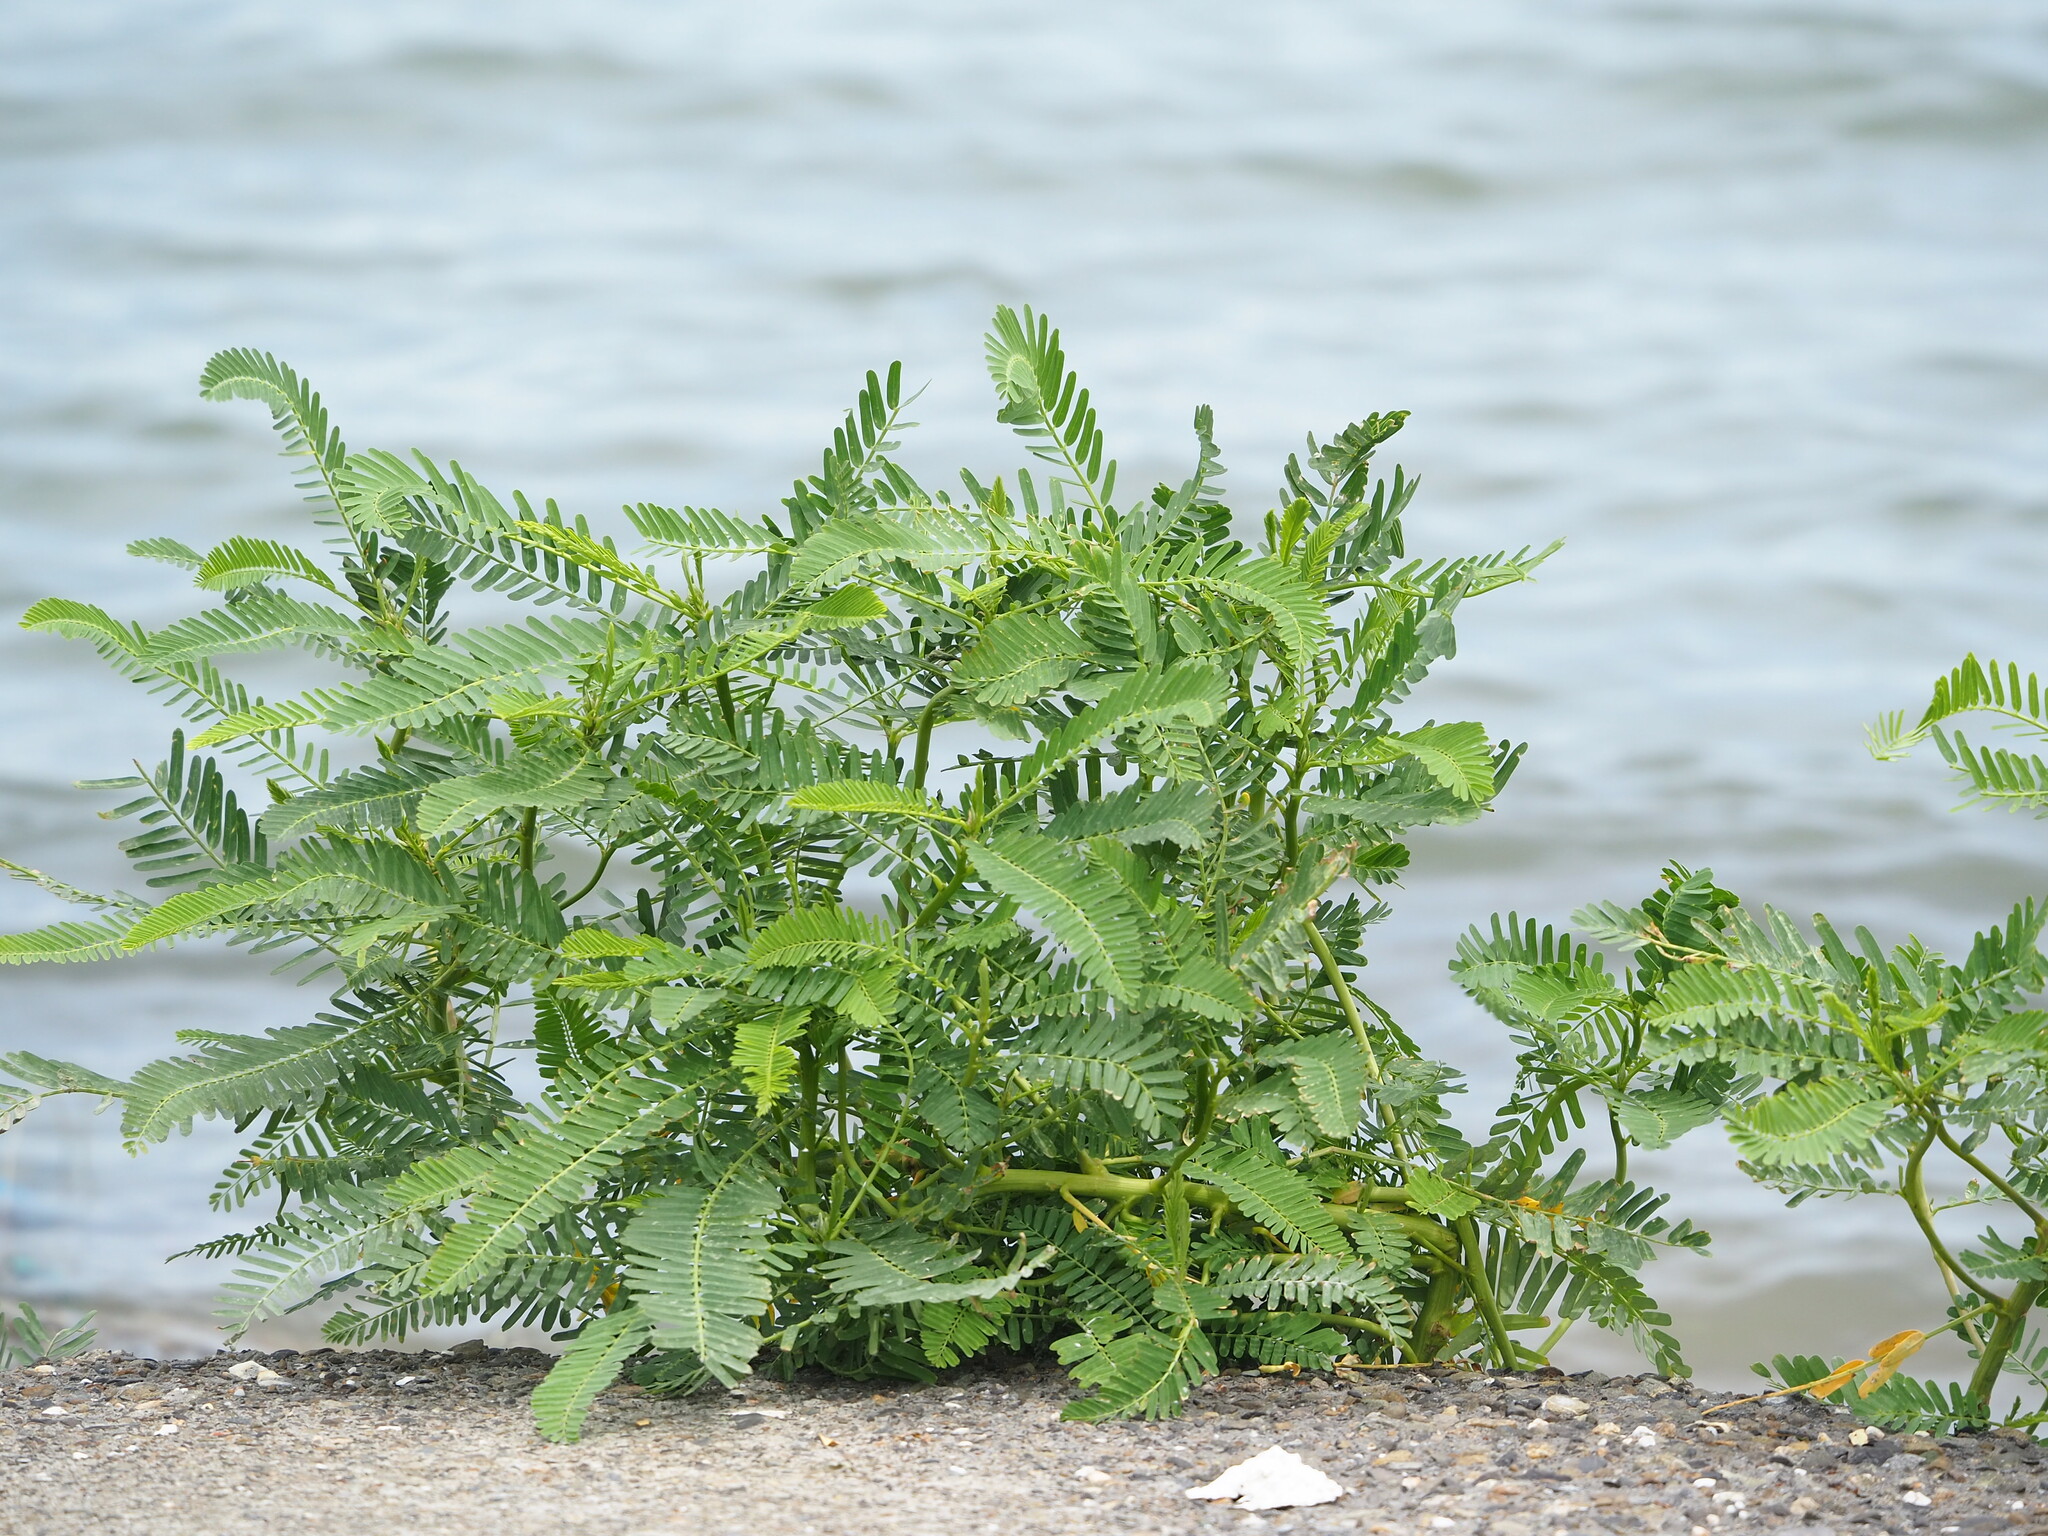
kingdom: Plantae
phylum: Tracheophyta
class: Magnoliopsida
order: Fabales
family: Fabaceae
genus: Sesbania
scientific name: Sesbania cannabina
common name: Canicha
